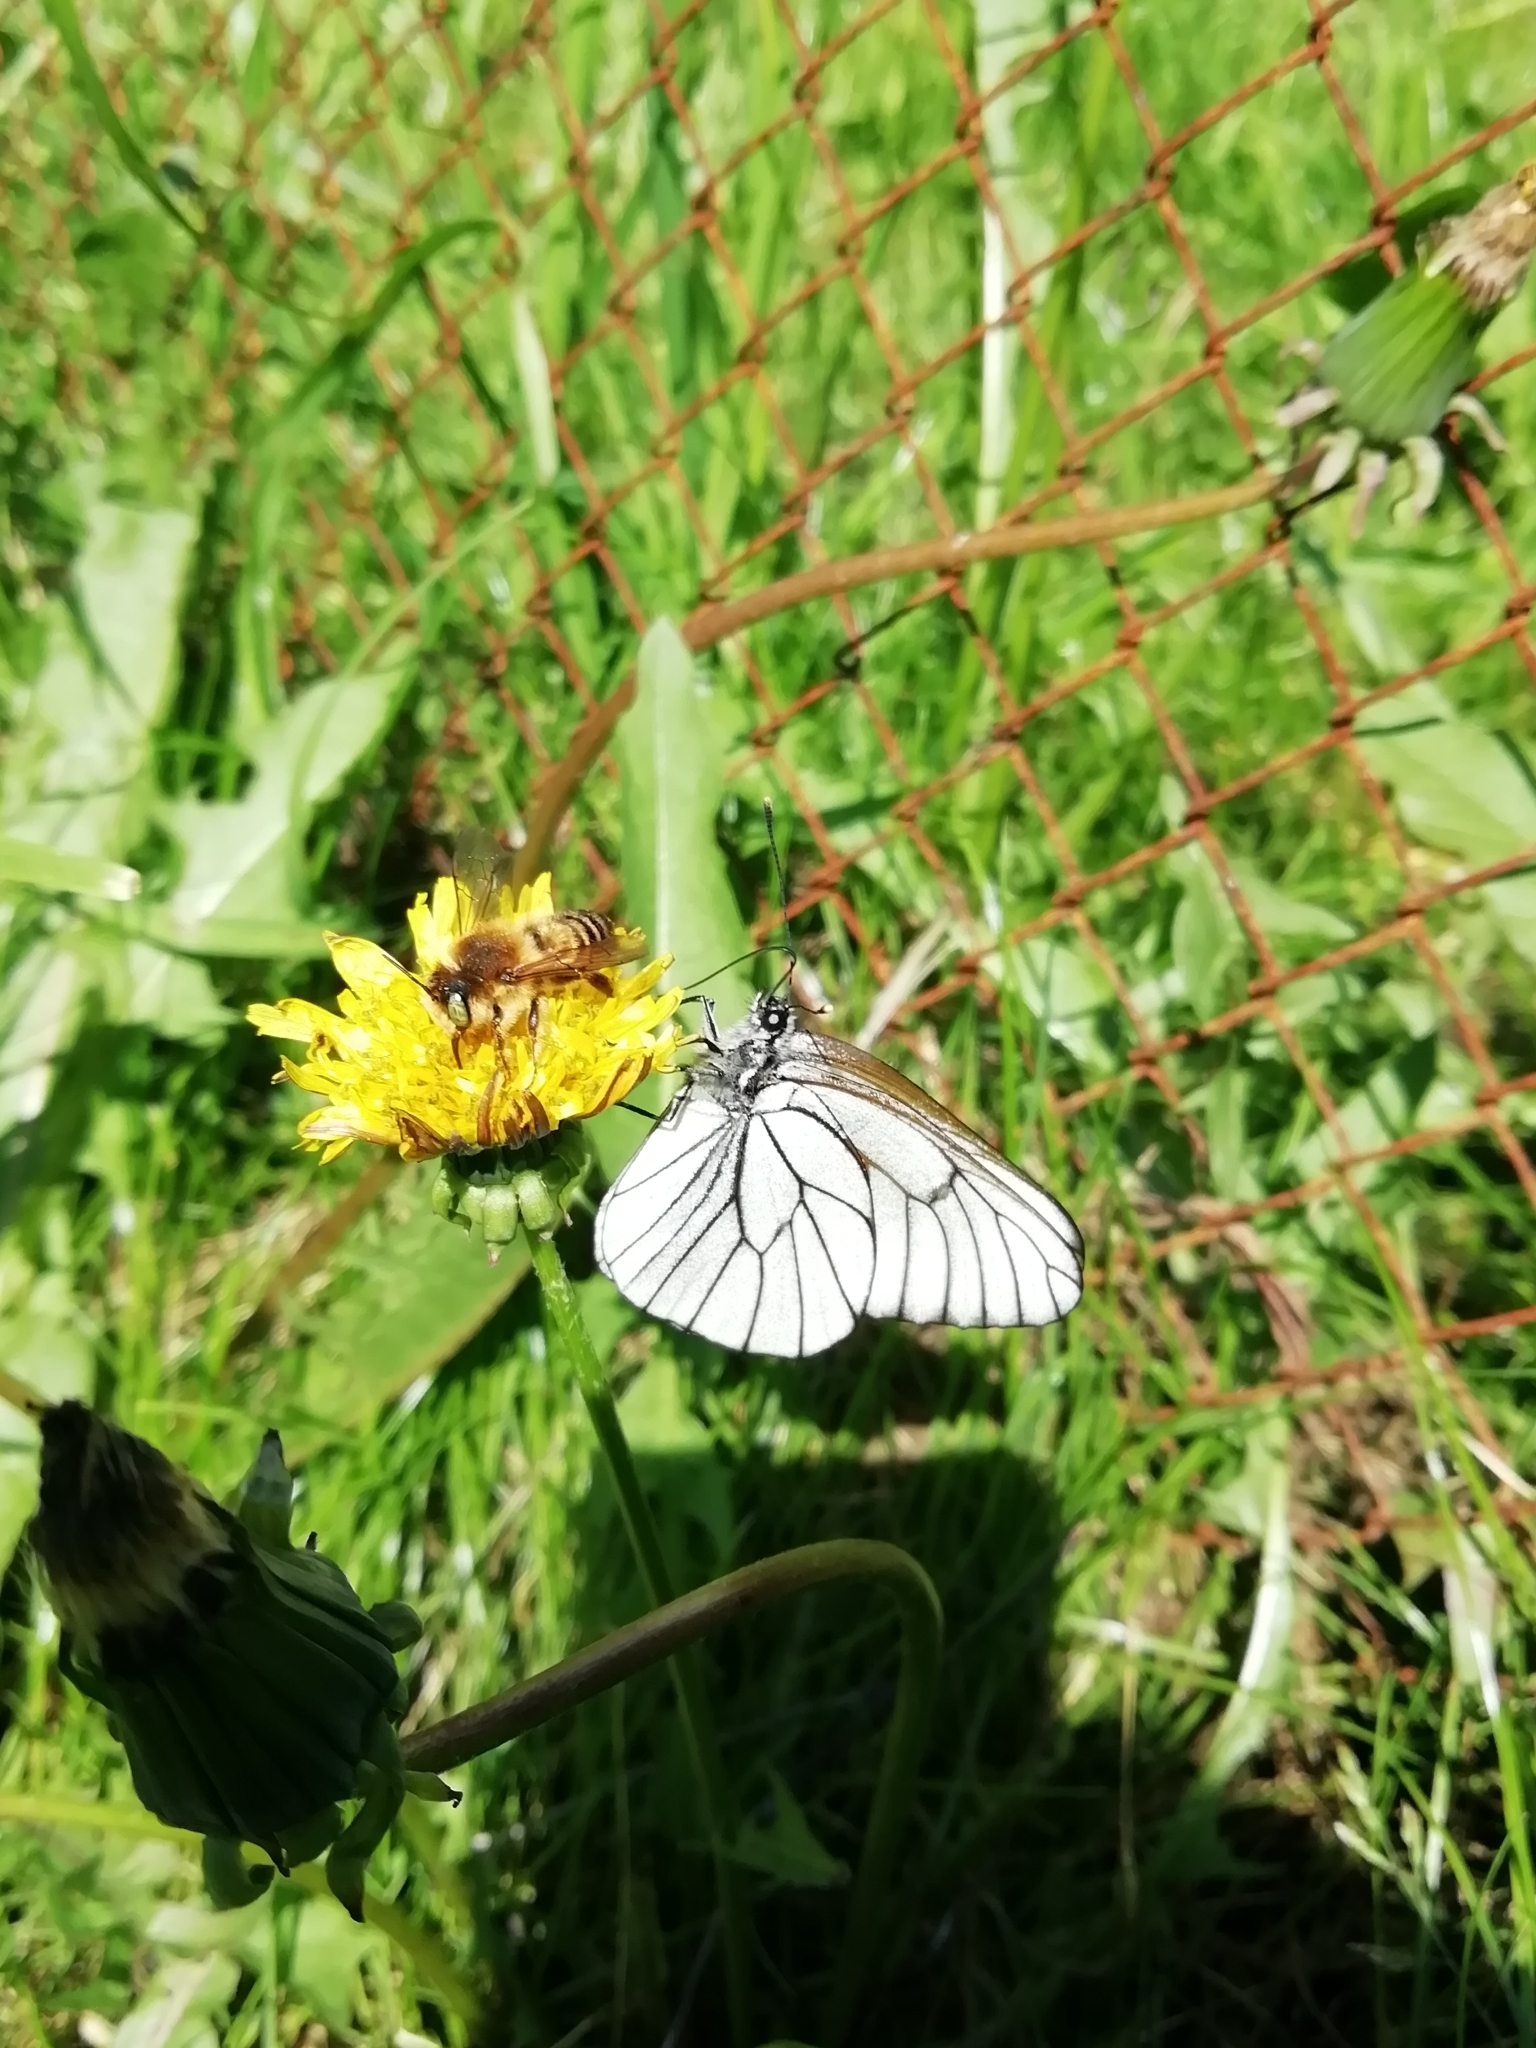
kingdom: Animalia
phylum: Arthropoda
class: Insecta
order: Lepidoptera
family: Pieridae
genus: Aporia
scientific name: Aporia crataegi
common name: Black-veined white
